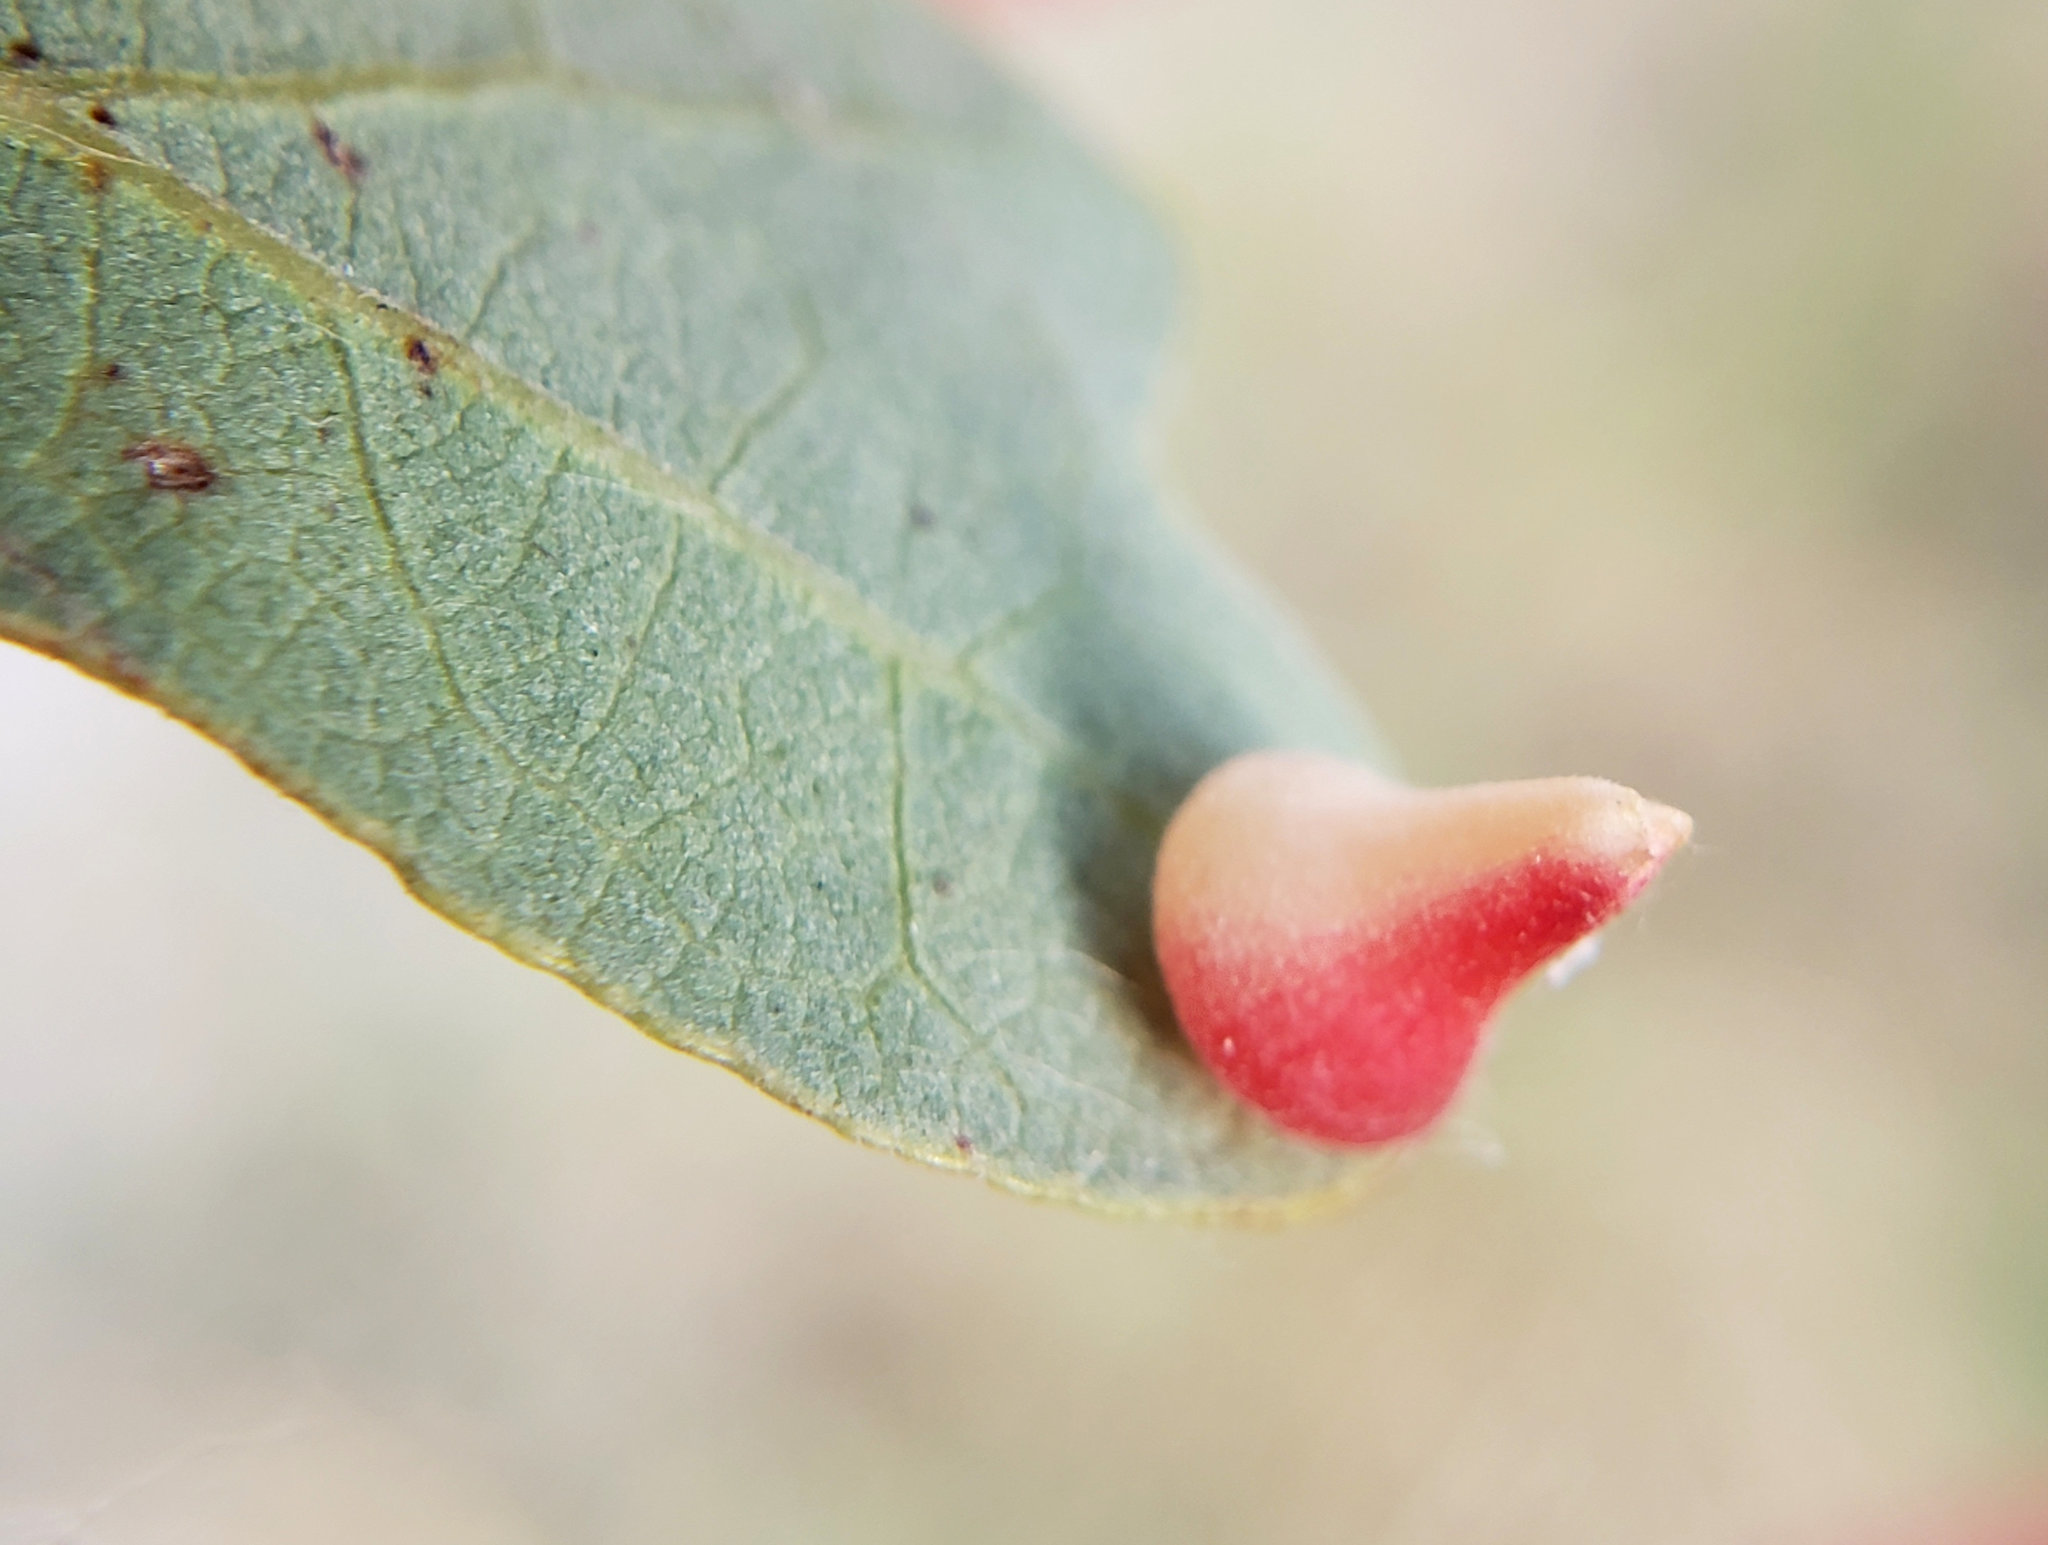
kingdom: Animalia
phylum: Arthropoda
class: Insecta
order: Hymenoptera
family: Cynipidae
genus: Andricus
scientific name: Andricus
